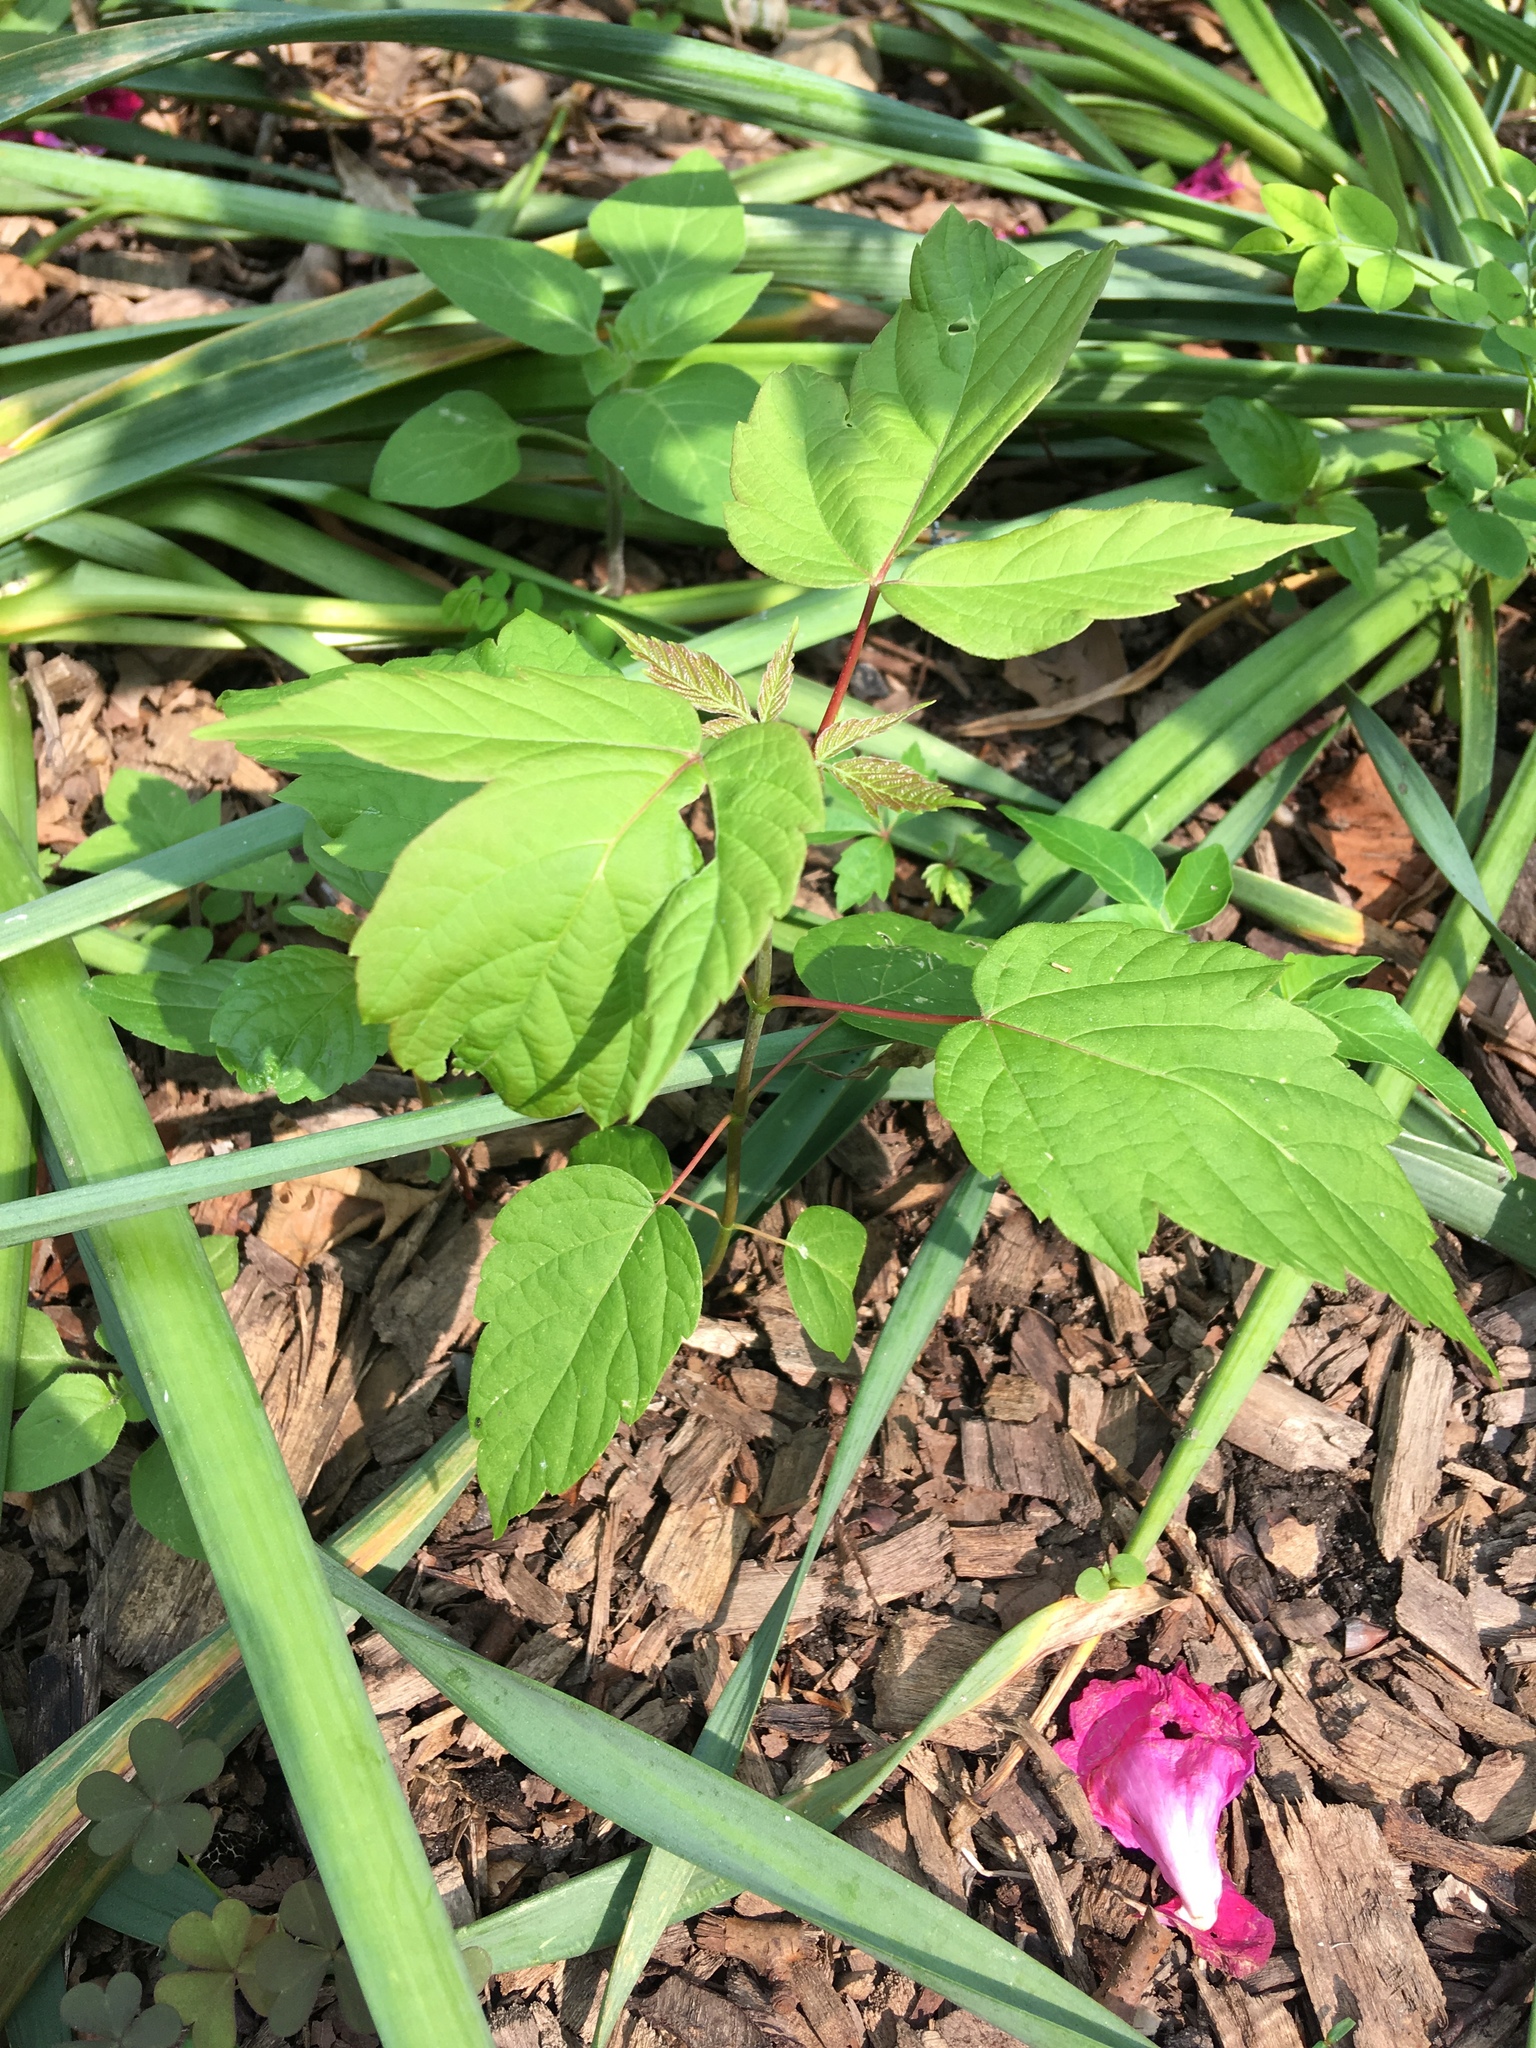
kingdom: Plantae
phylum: Tracheophyta
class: Magnoliopsida
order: Sapindales
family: Sapindaceae
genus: Acer
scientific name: Acer negundo
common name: Ashleaf maple
